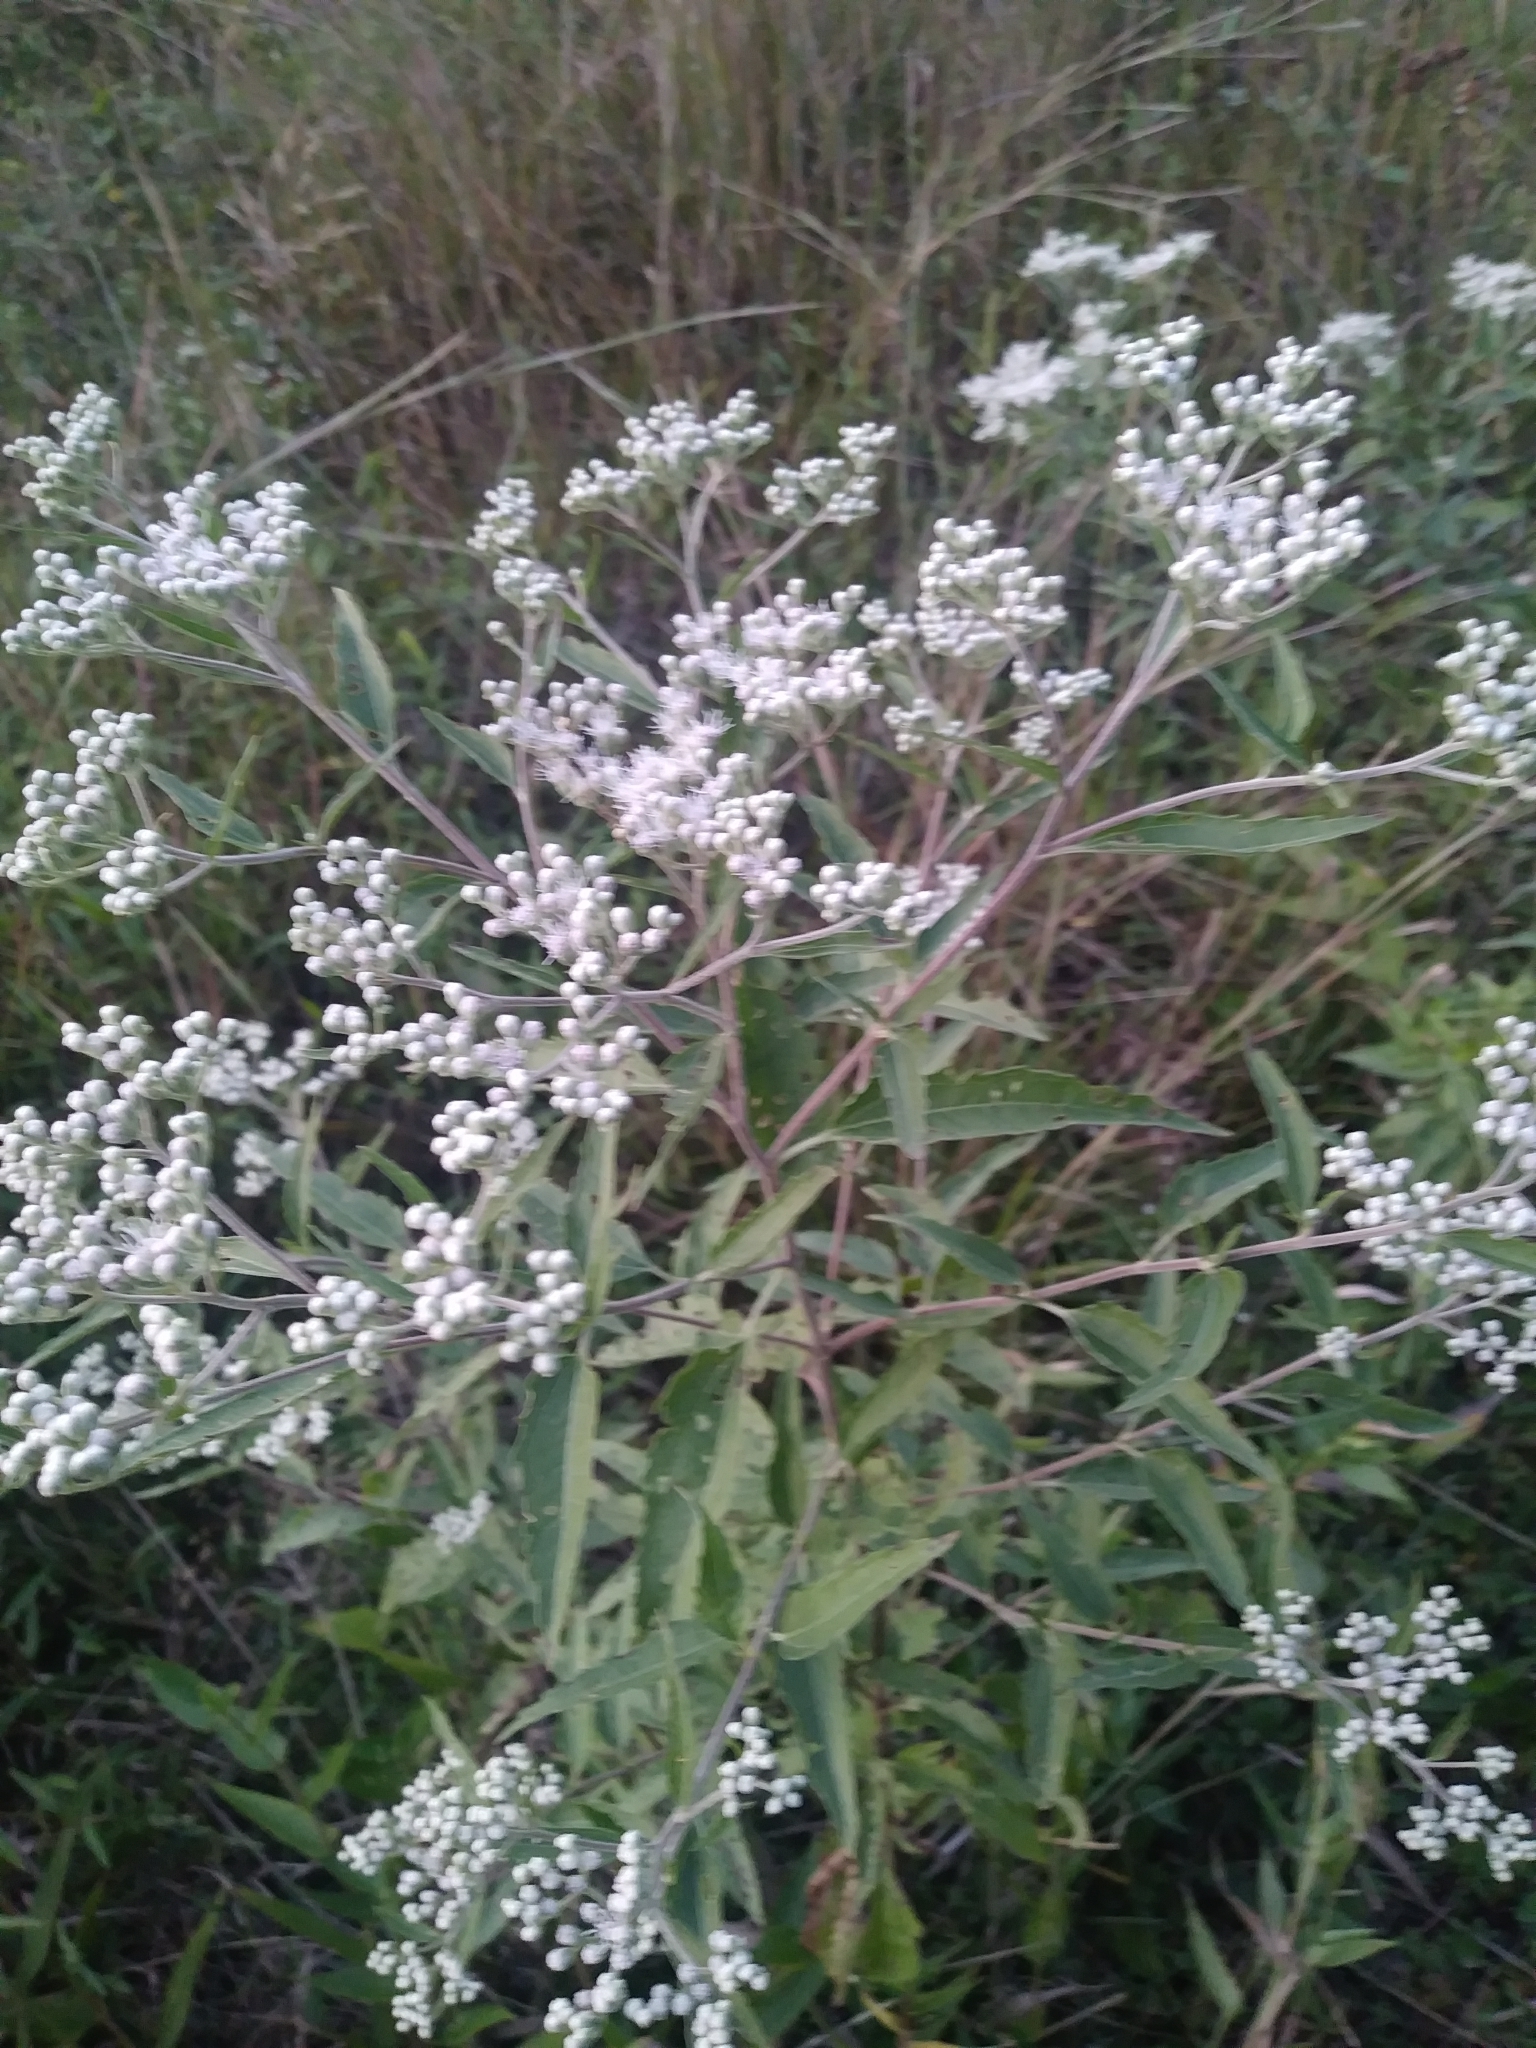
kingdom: Plantae
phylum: Tracheophyta
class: Magnoliopsida
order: Asterales
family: Asteraceae
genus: Eupatorium
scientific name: Eupatorium serotinum
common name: Late boneset
